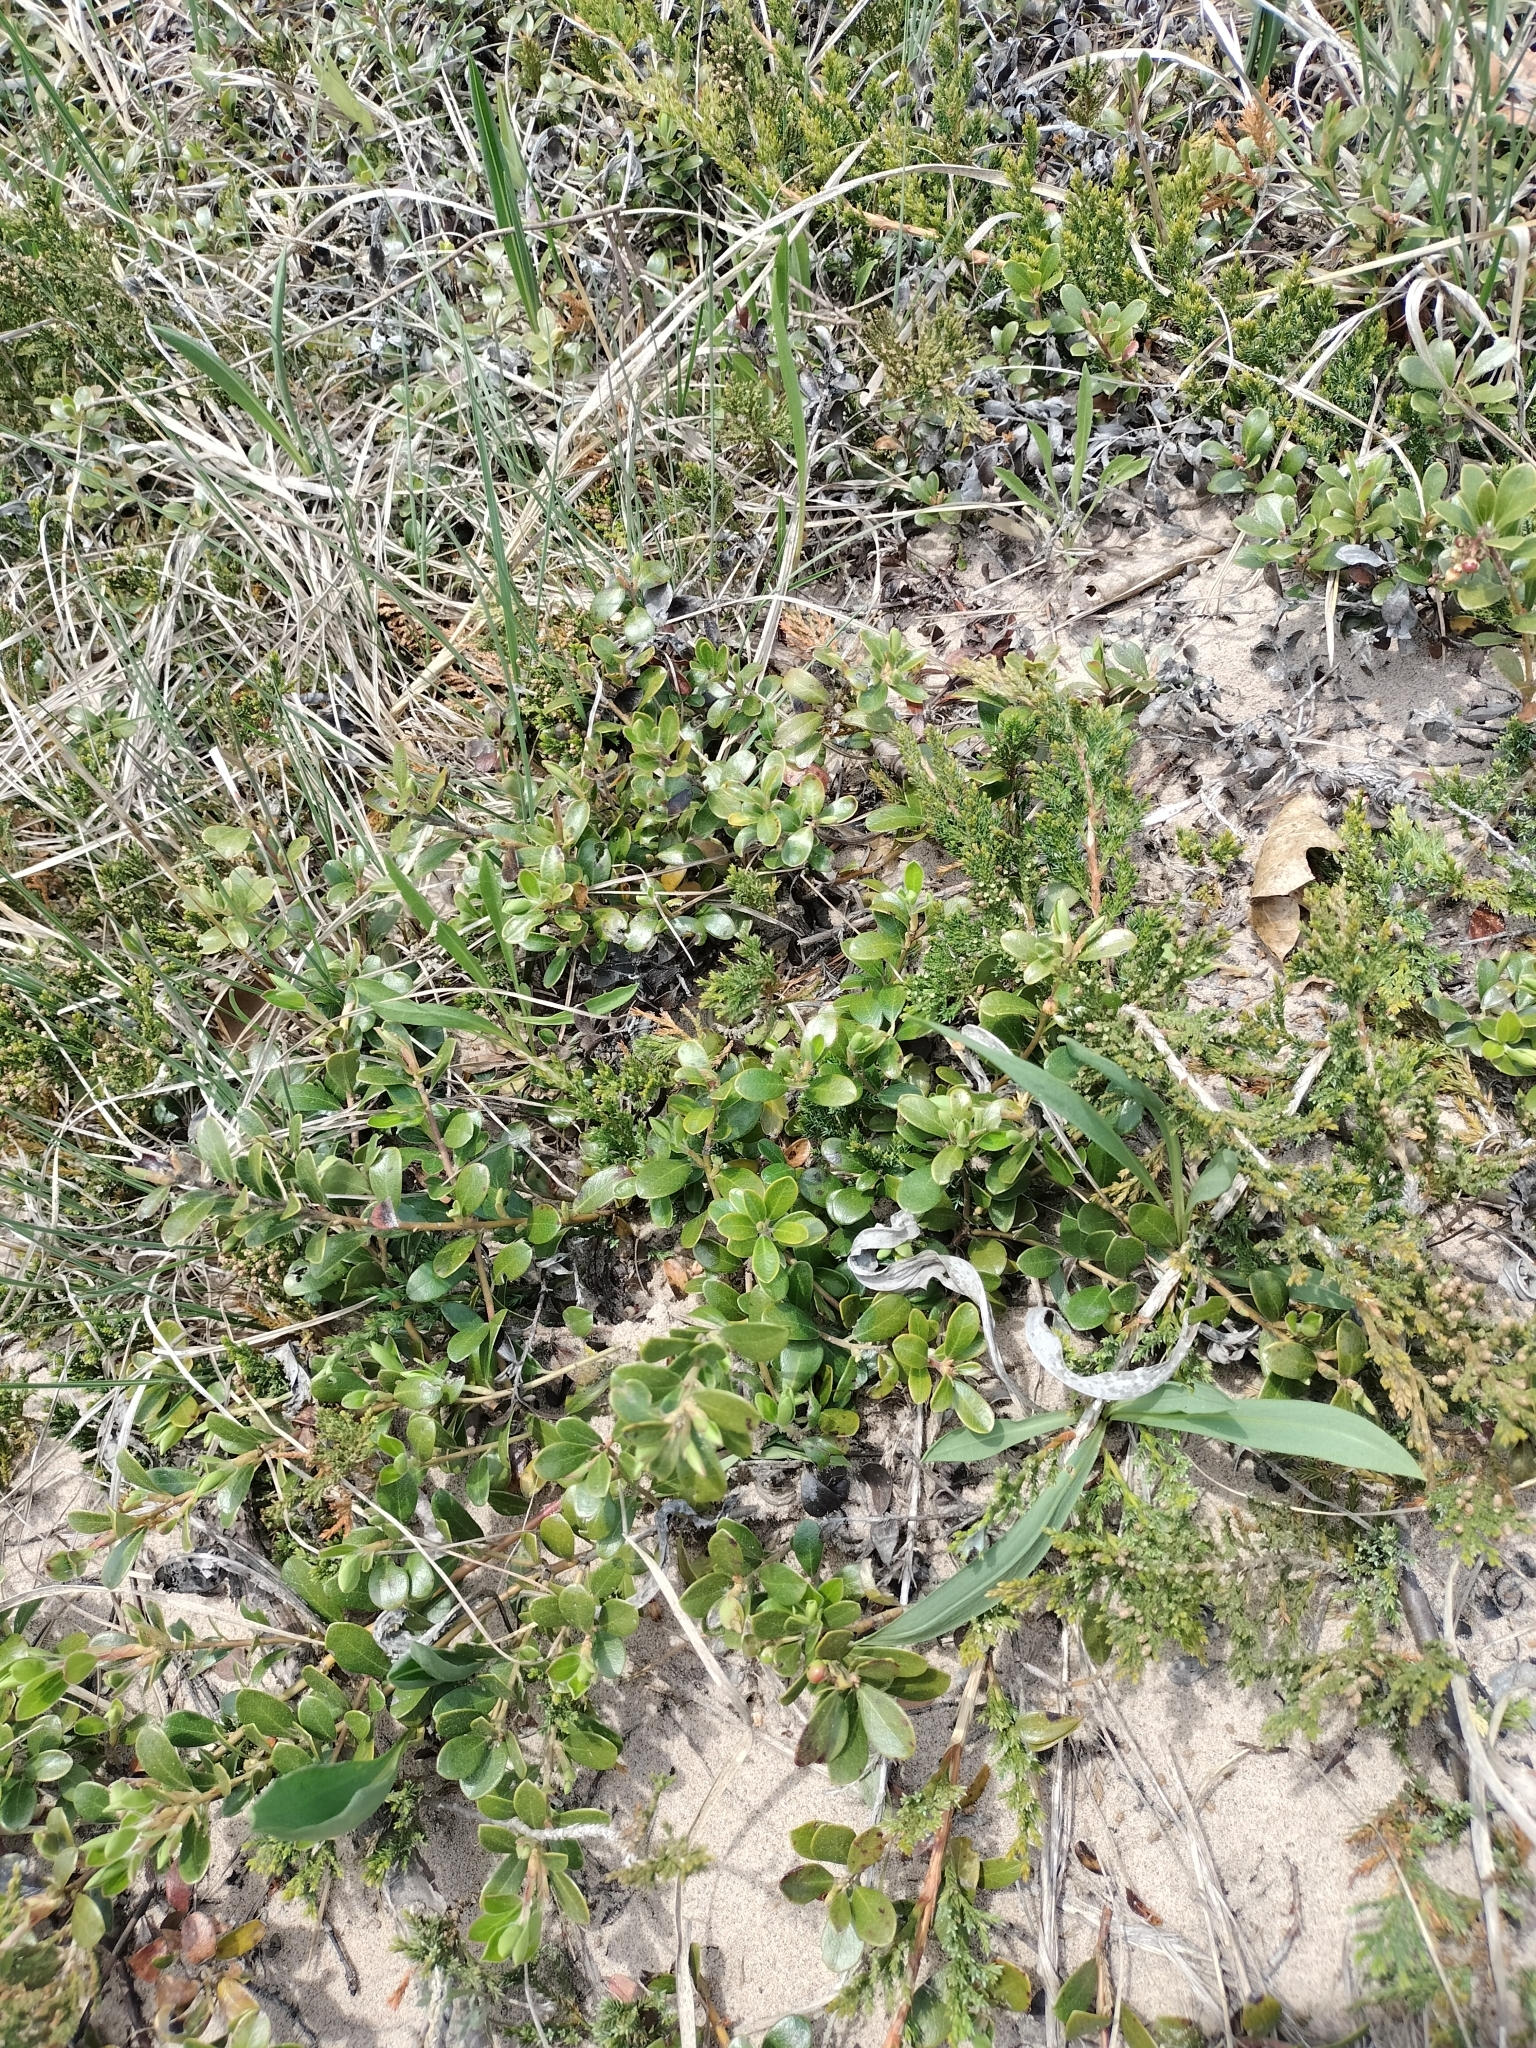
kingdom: Plantae
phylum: Tracheophyta
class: Magnoliopsida
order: Ericales
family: Ericaceae
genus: Arctostaphylos
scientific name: Arctostaphylos uva-ursi
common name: Bearberry
